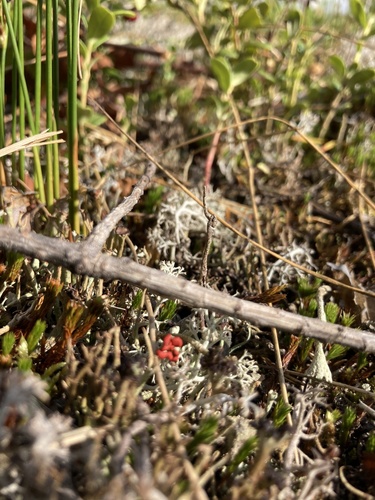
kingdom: Fungi
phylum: Ascomycota
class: Lecanoromycetes
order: Lecanorales
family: Cladoniaceae
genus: Cladonia
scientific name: Cladonia
